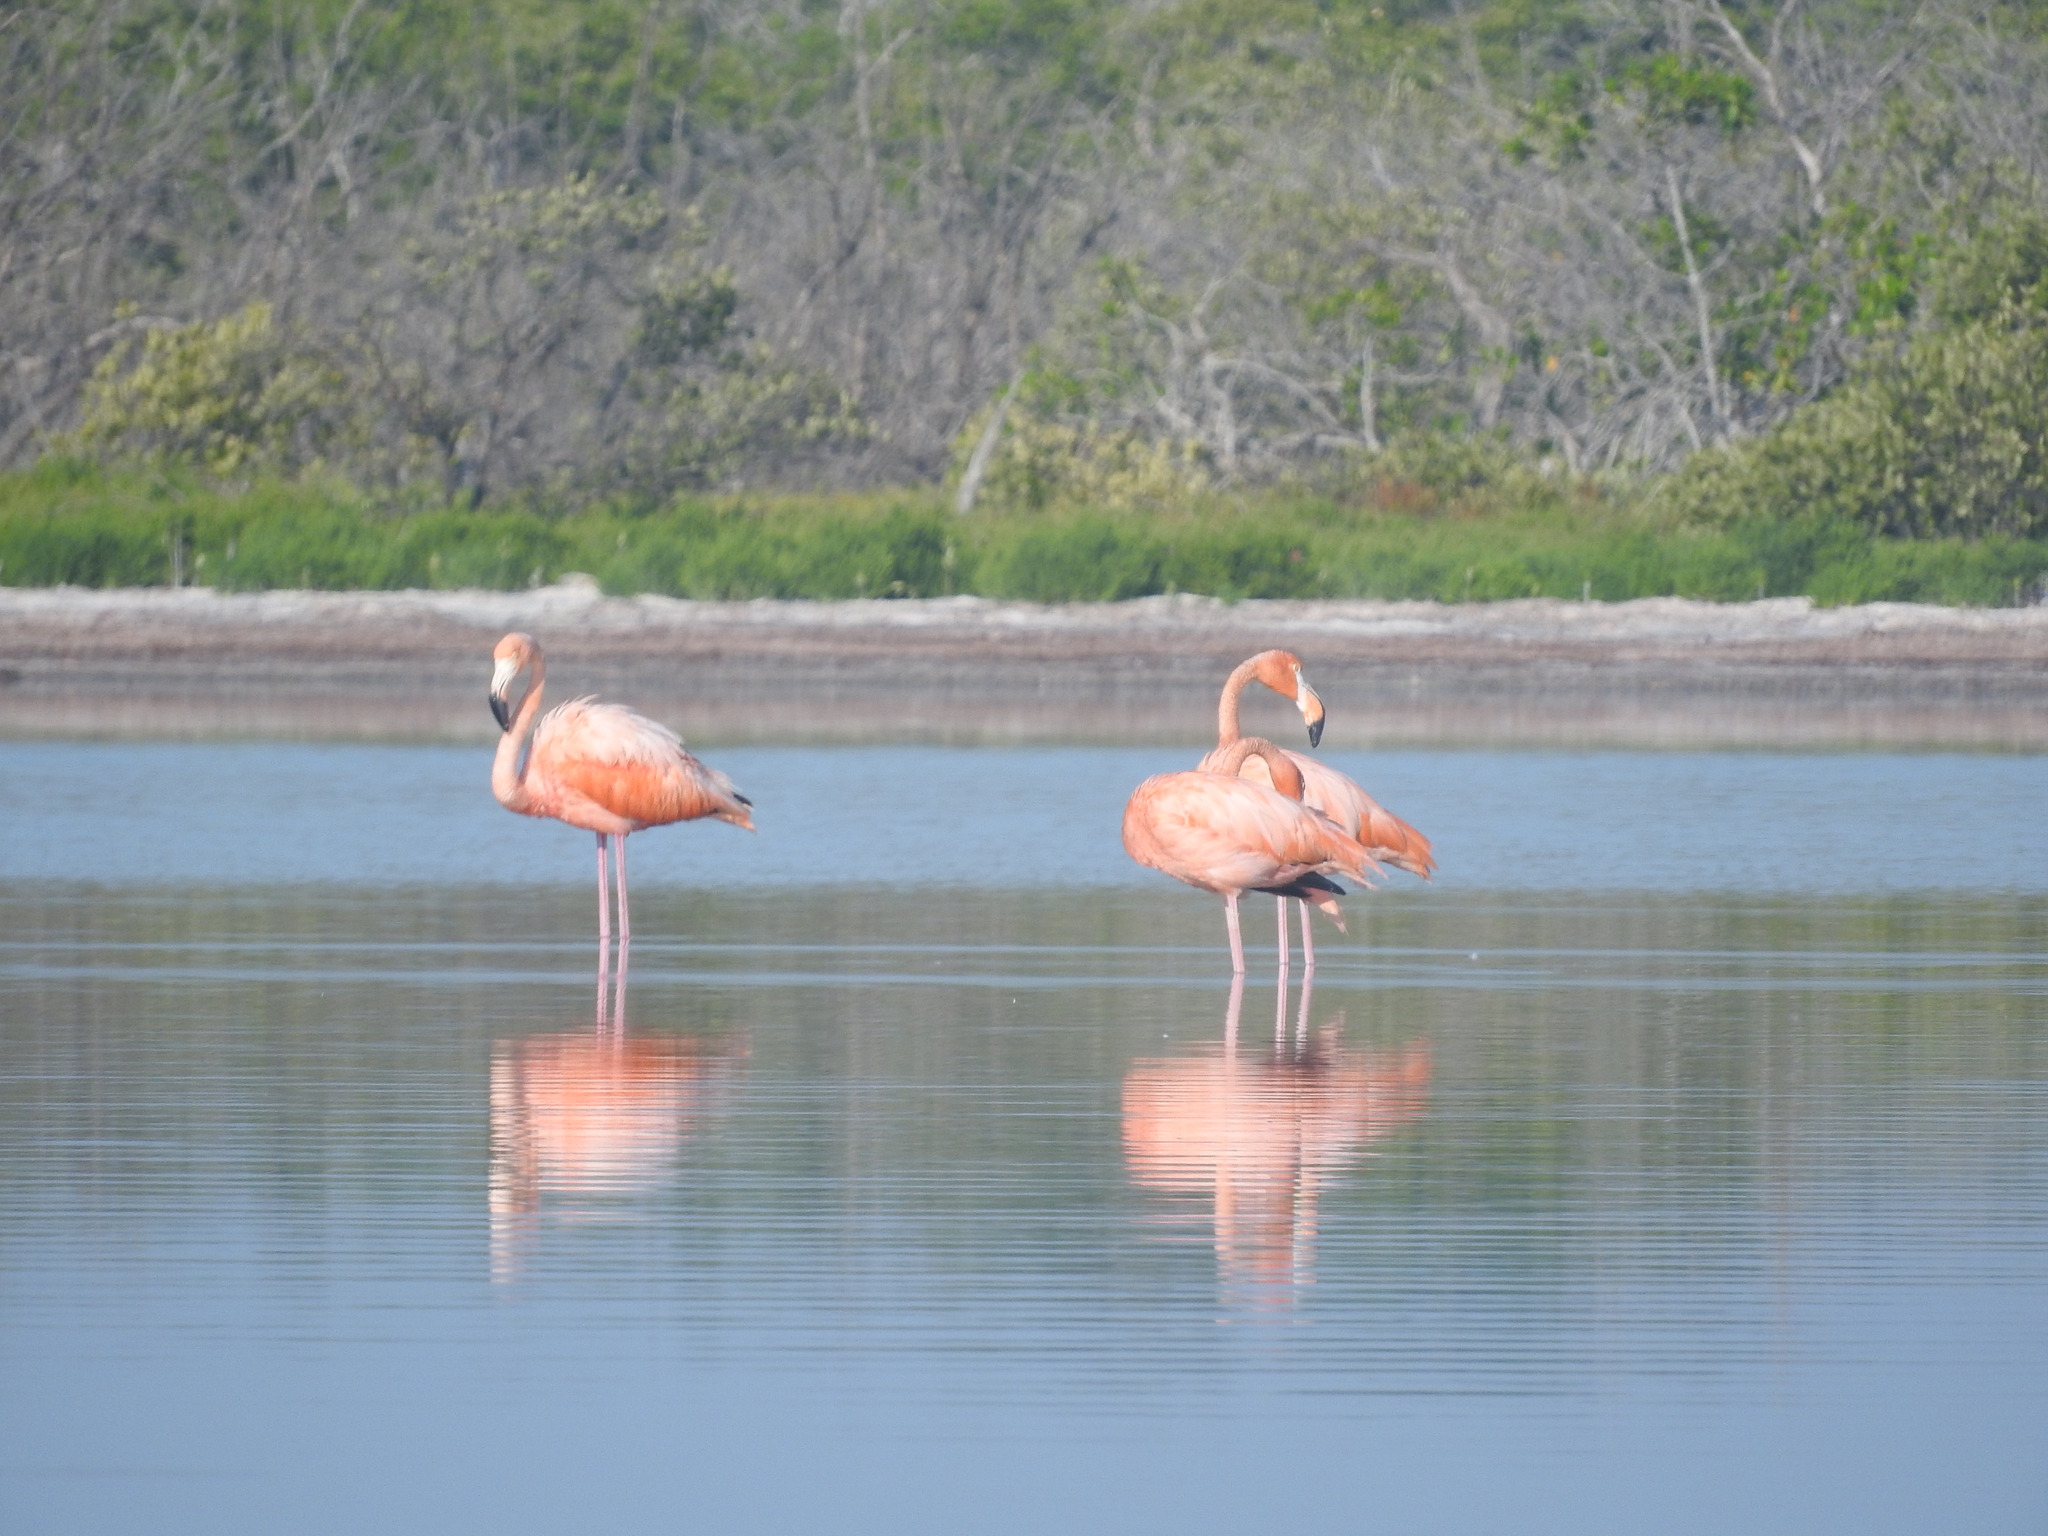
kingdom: Animalia
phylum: Chordata
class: Aves
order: Phoenicopteriformes
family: Phoenicopteridae
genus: Phoenicopterus
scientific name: Phoenicopterus ruber
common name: American flamingo
